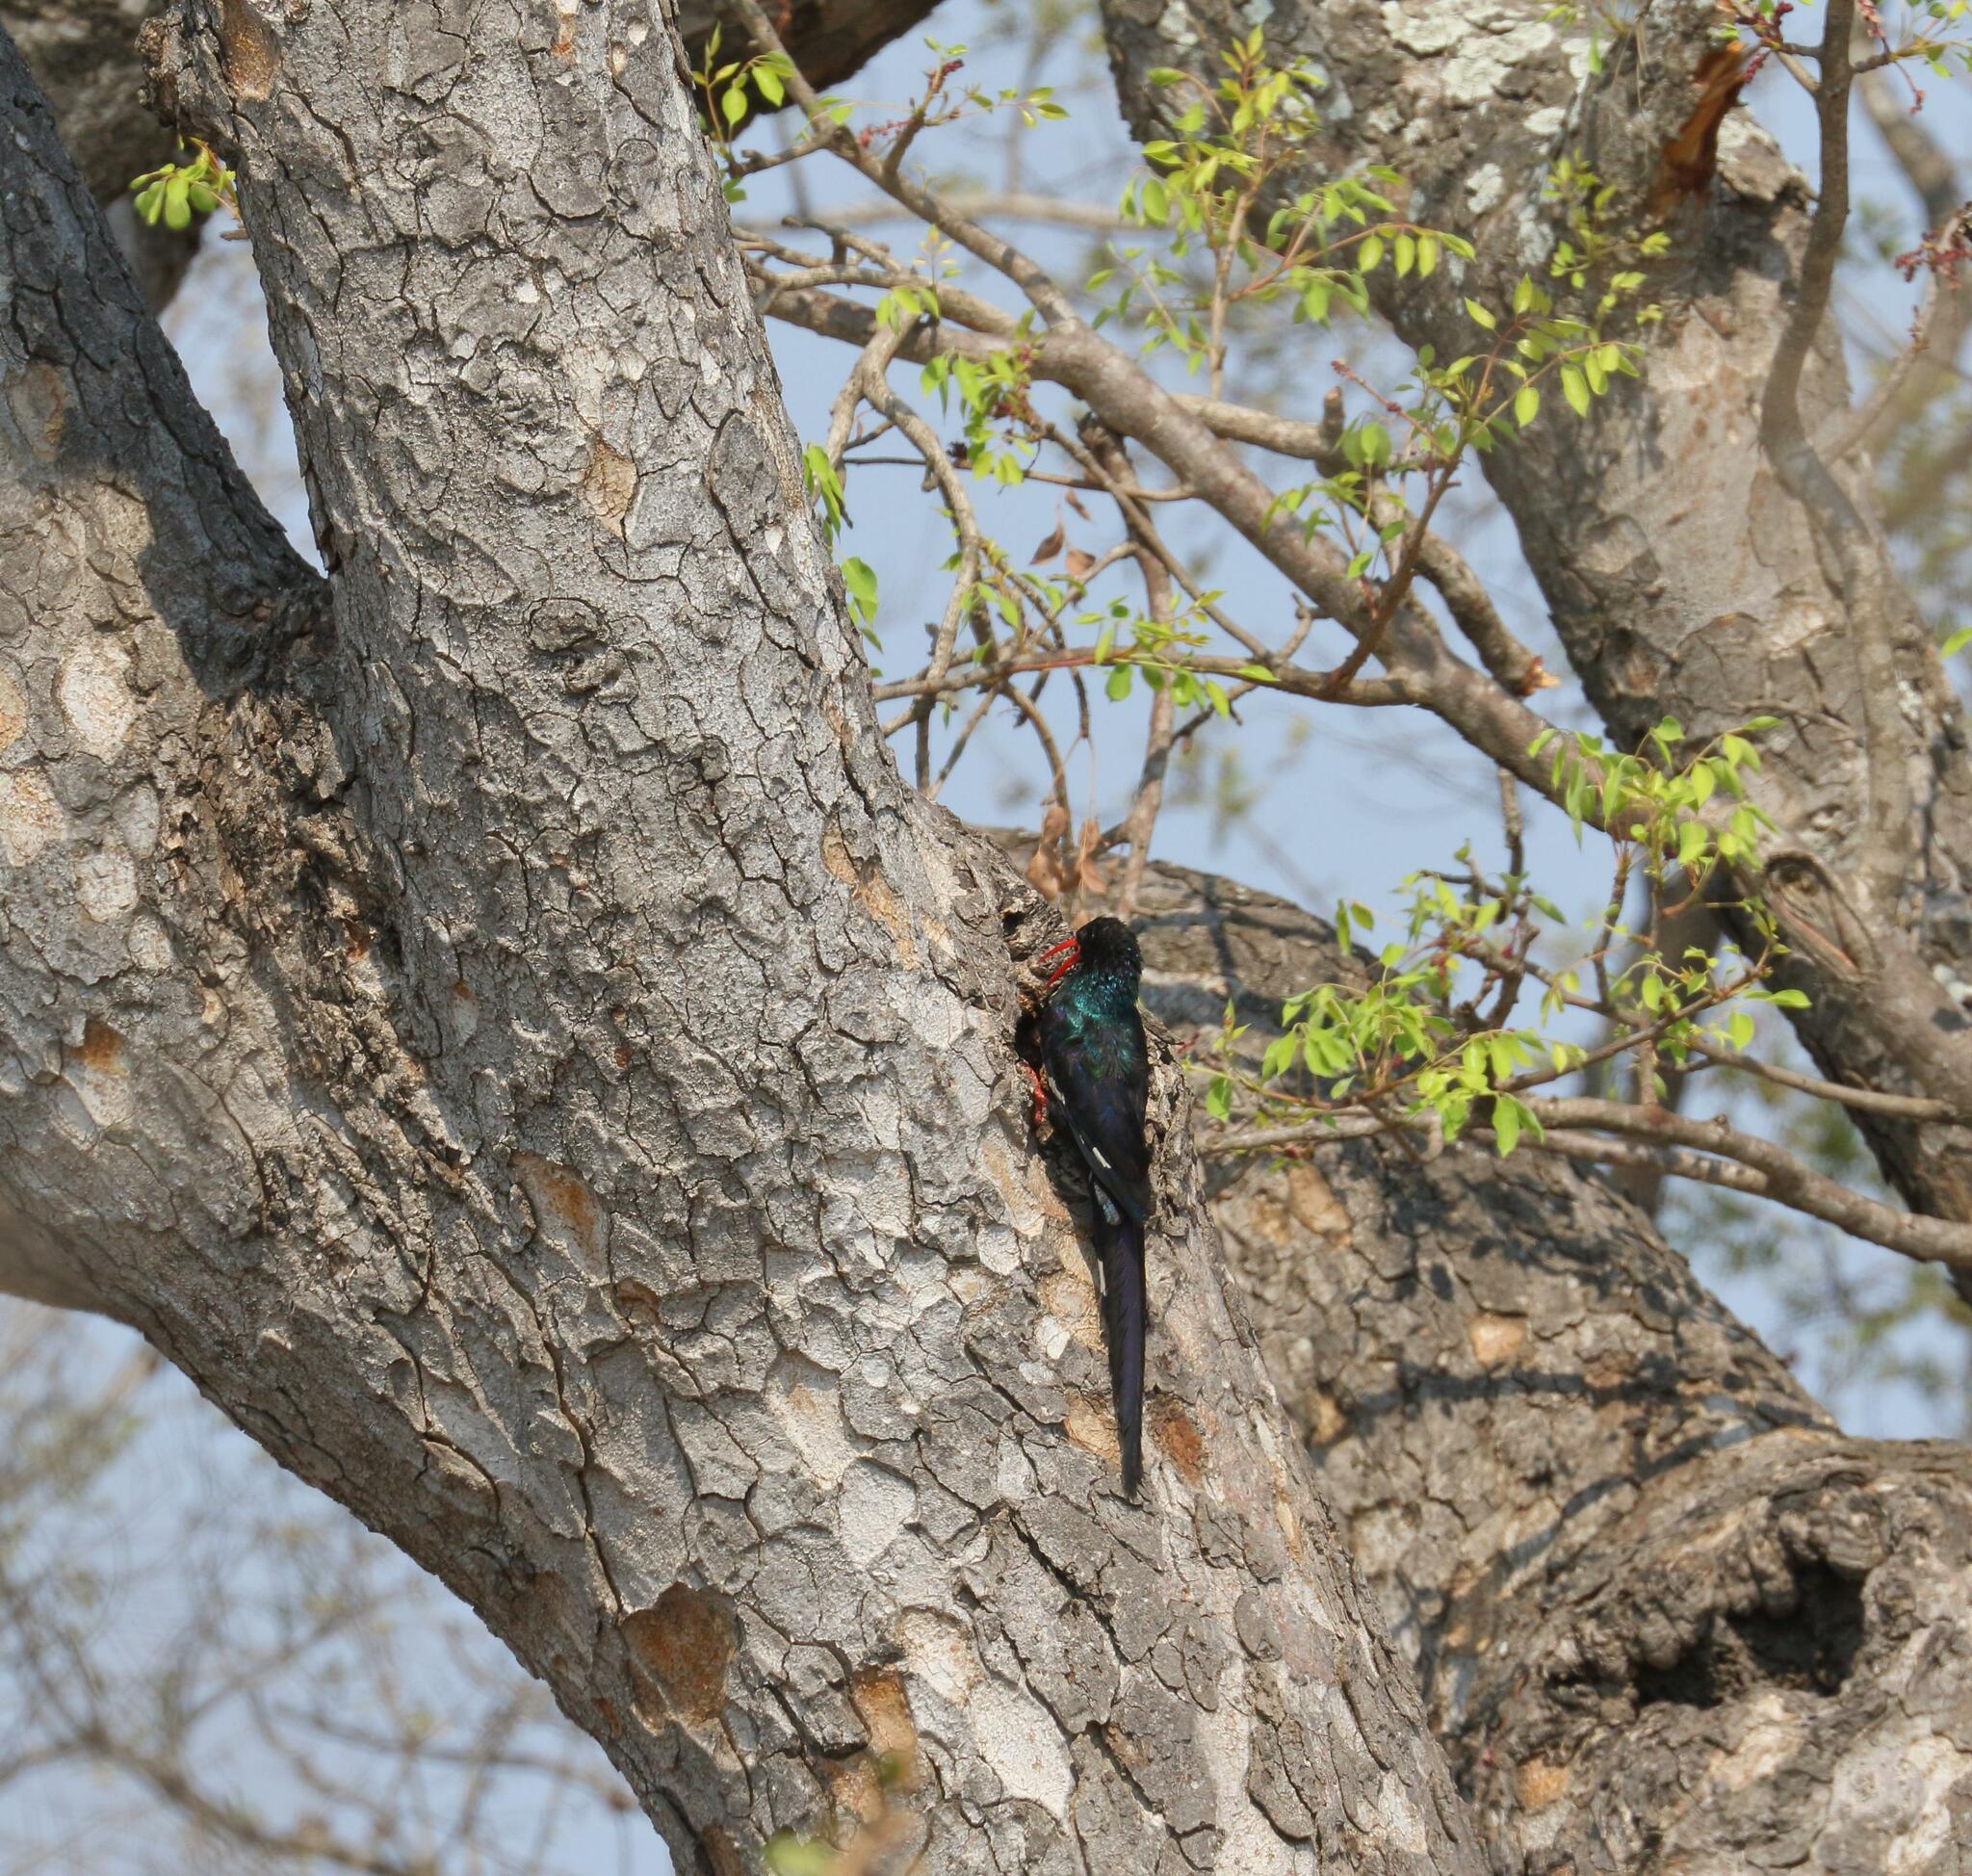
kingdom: Animalia
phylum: Chordata
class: Aves
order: Bucerotiformes
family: Phoeniculidae
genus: Phoeniculus
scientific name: Phoeniculus purpureus
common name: Green woodhoopoe
